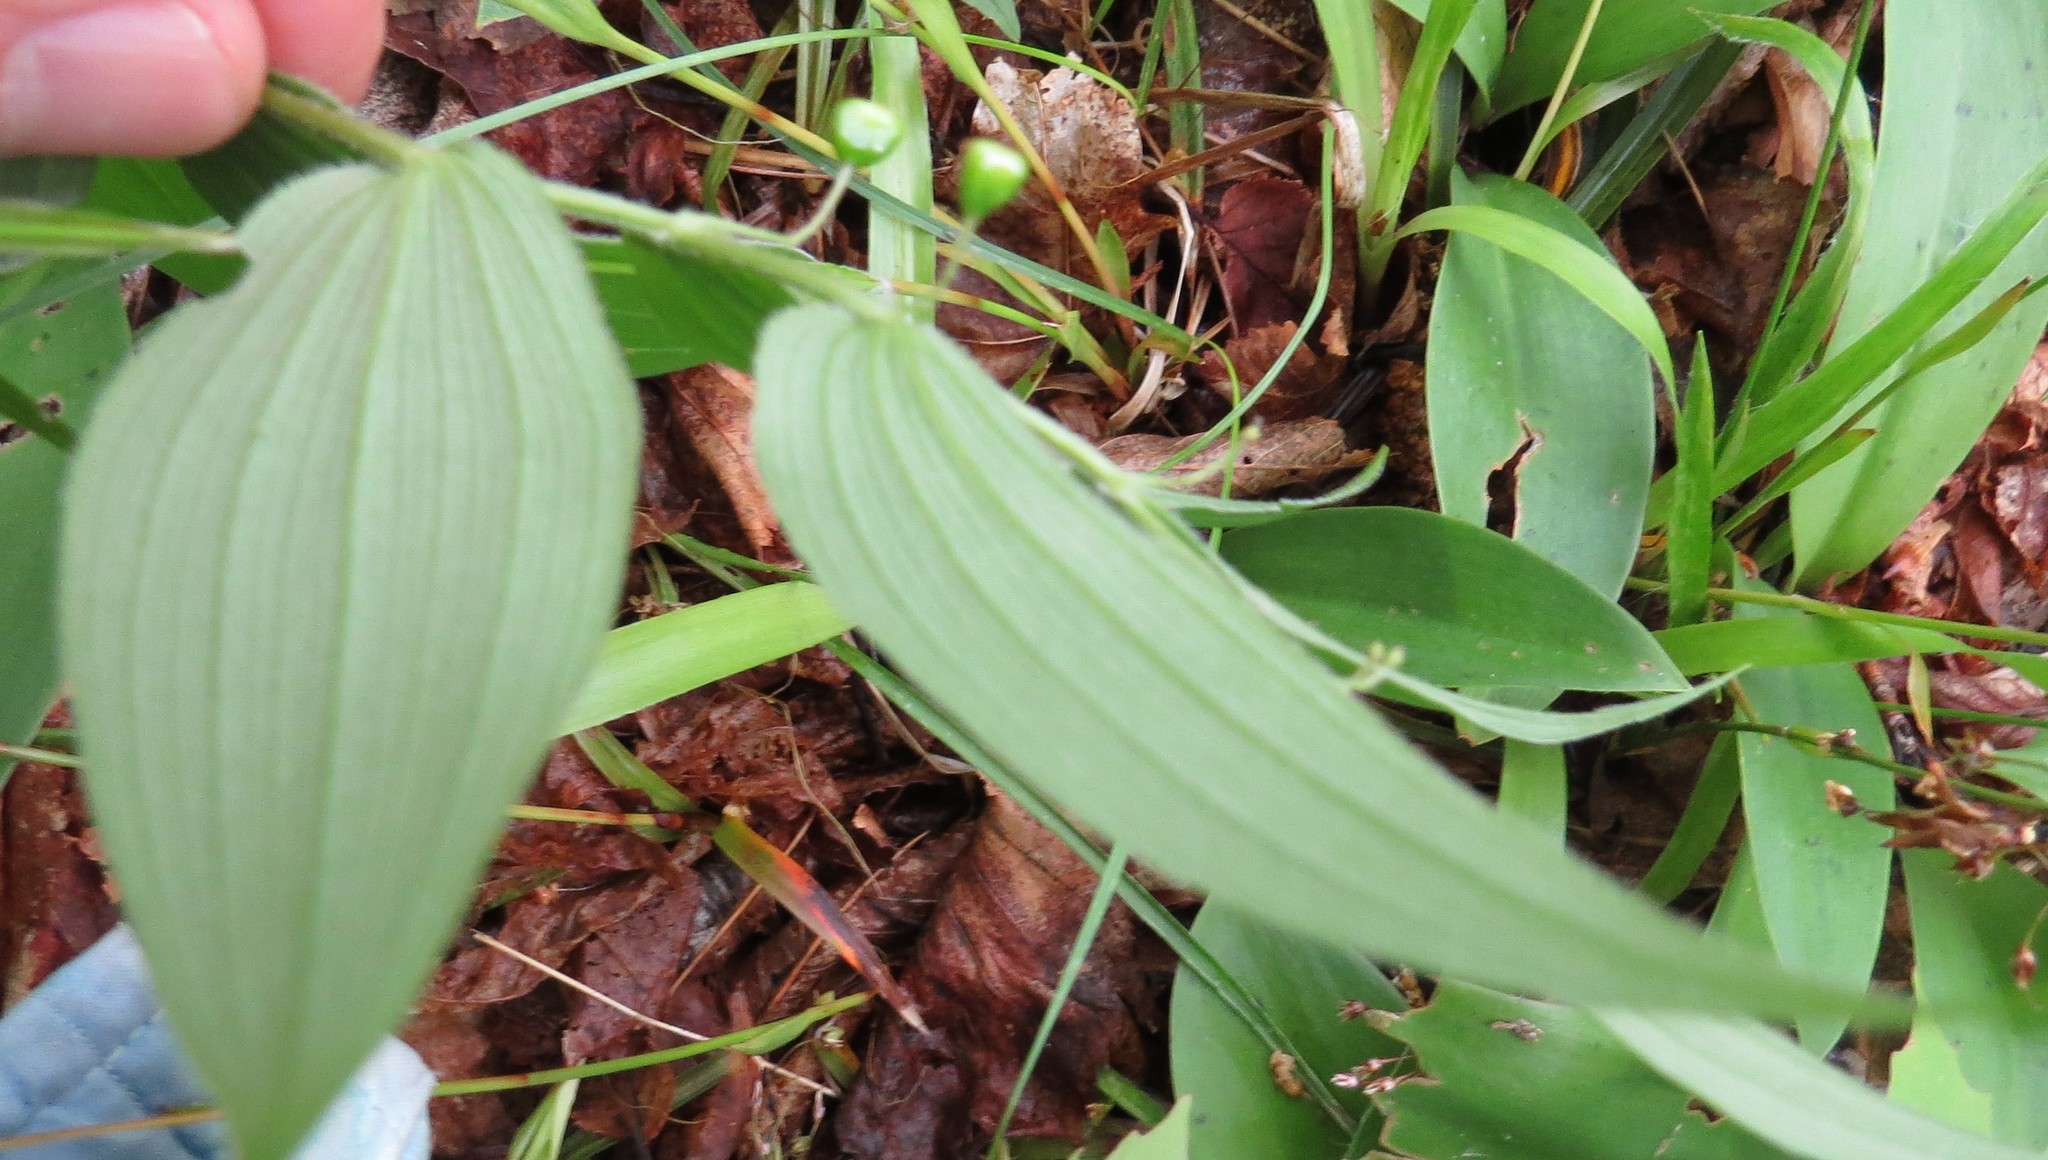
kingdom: Plantae
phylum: Tracheophyta
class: Liliopsida
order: Liliales
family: Liliaceae
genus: Streptopus
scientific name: Streptopus lanceolatus
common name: Rose mandarin
